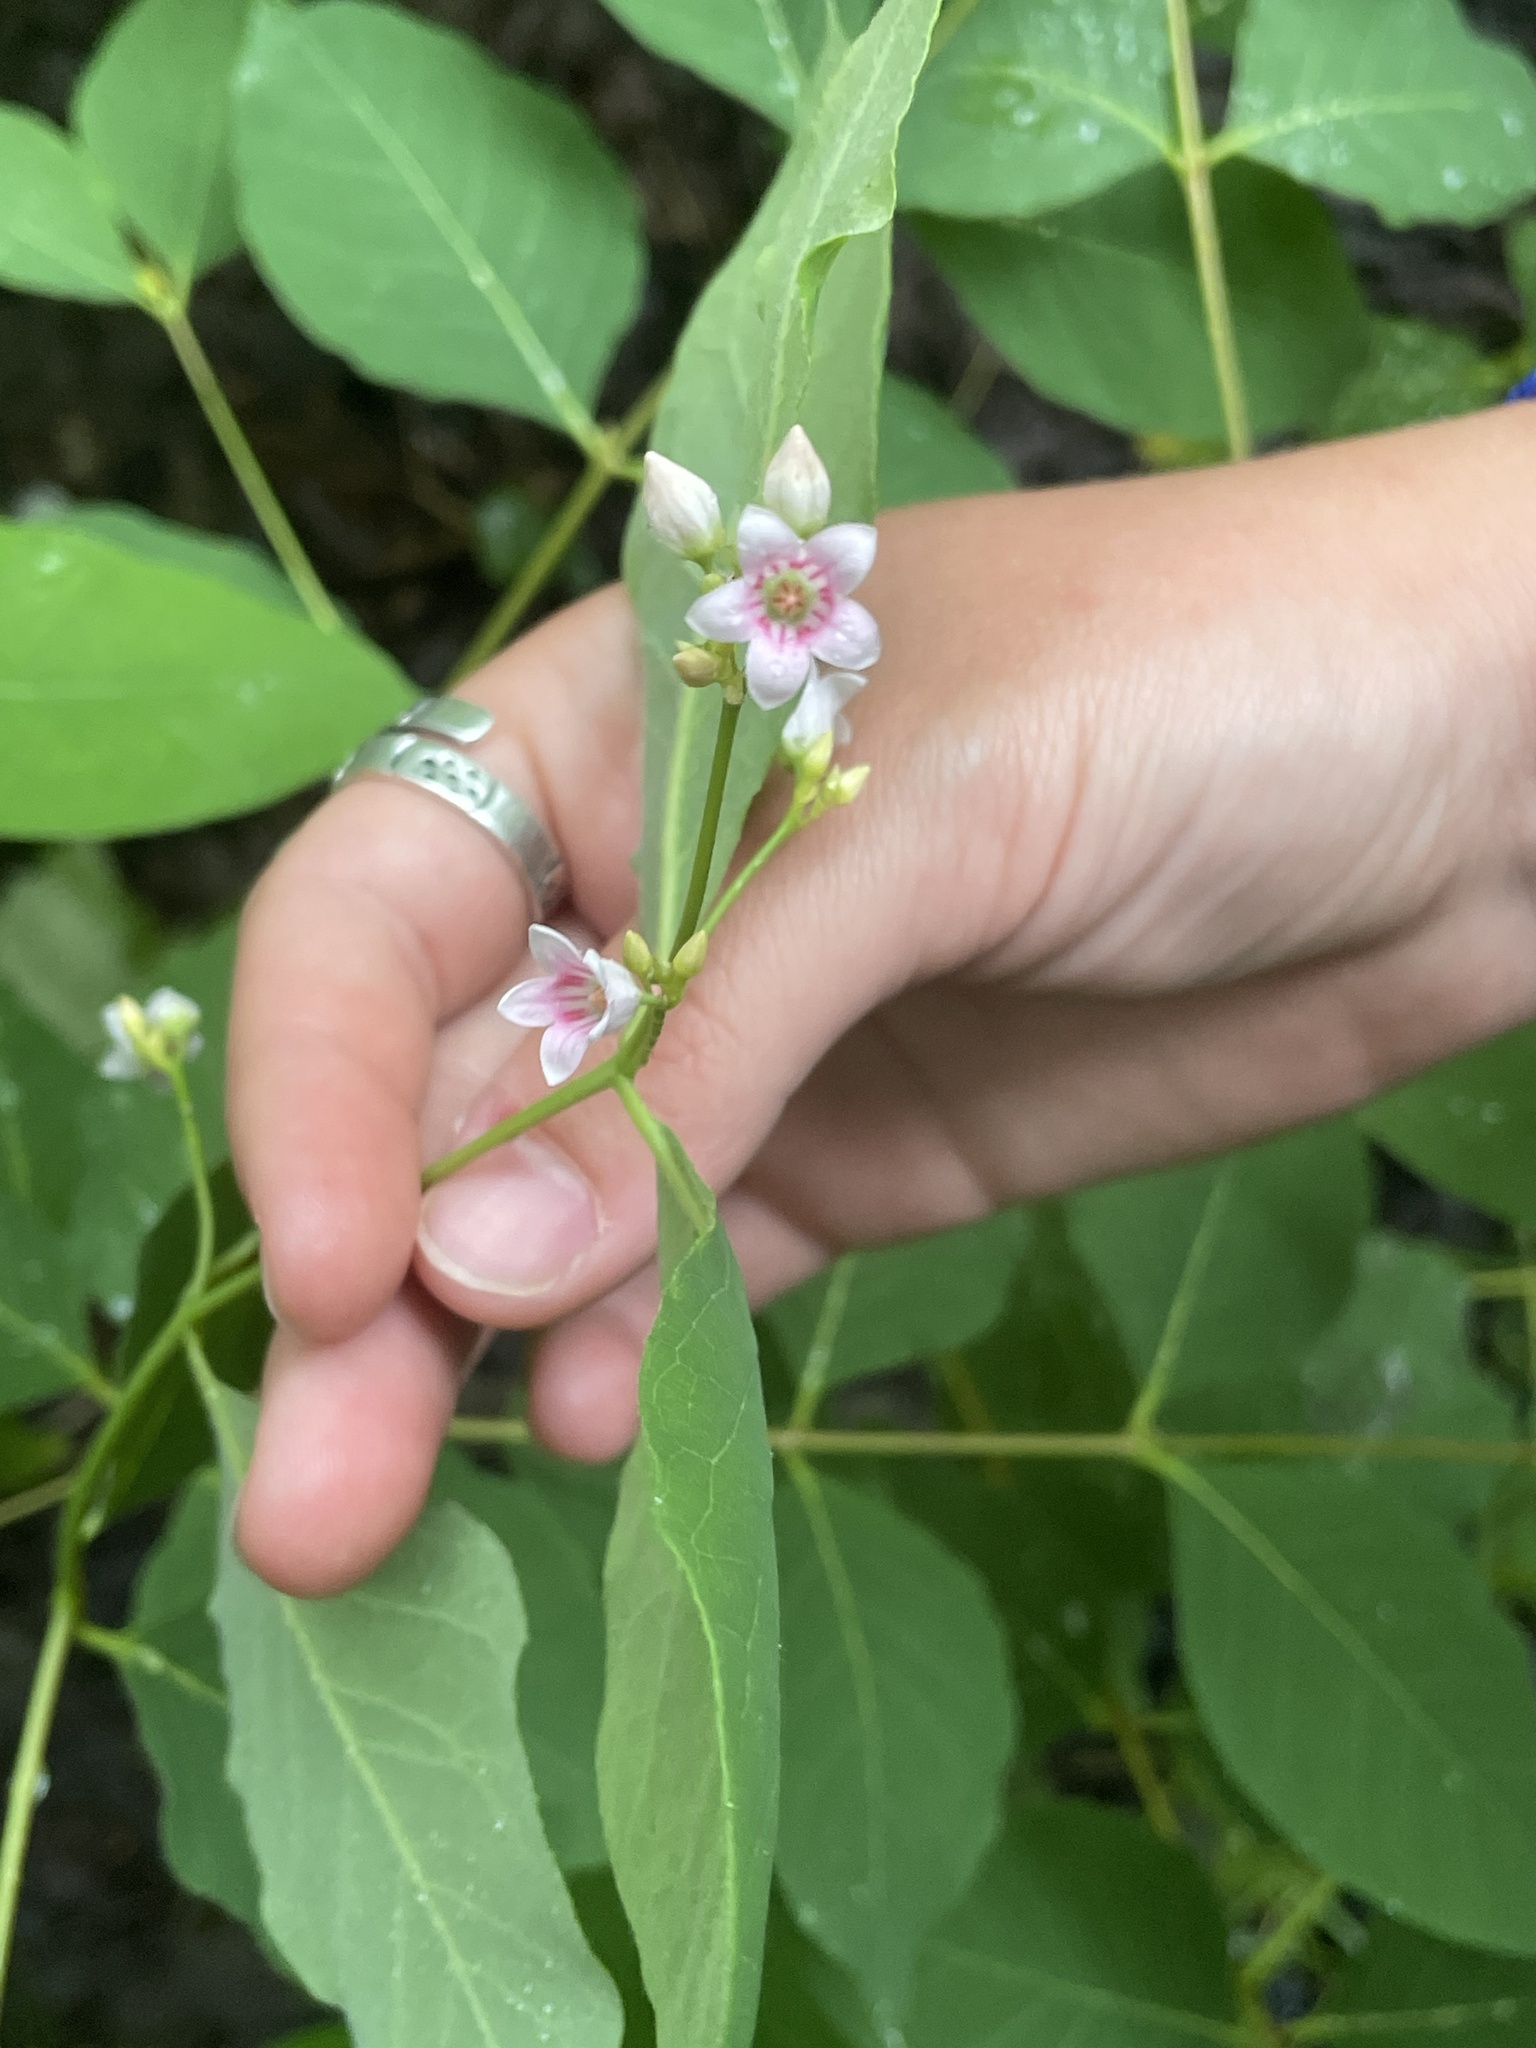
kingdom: Plantae
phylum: Tracheophyta
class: Magnoliopsida
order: Gentianales
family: Apocynaceae
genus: Apocynum
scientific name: Apocynum androsaemifolium
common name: Spreading dogbane
